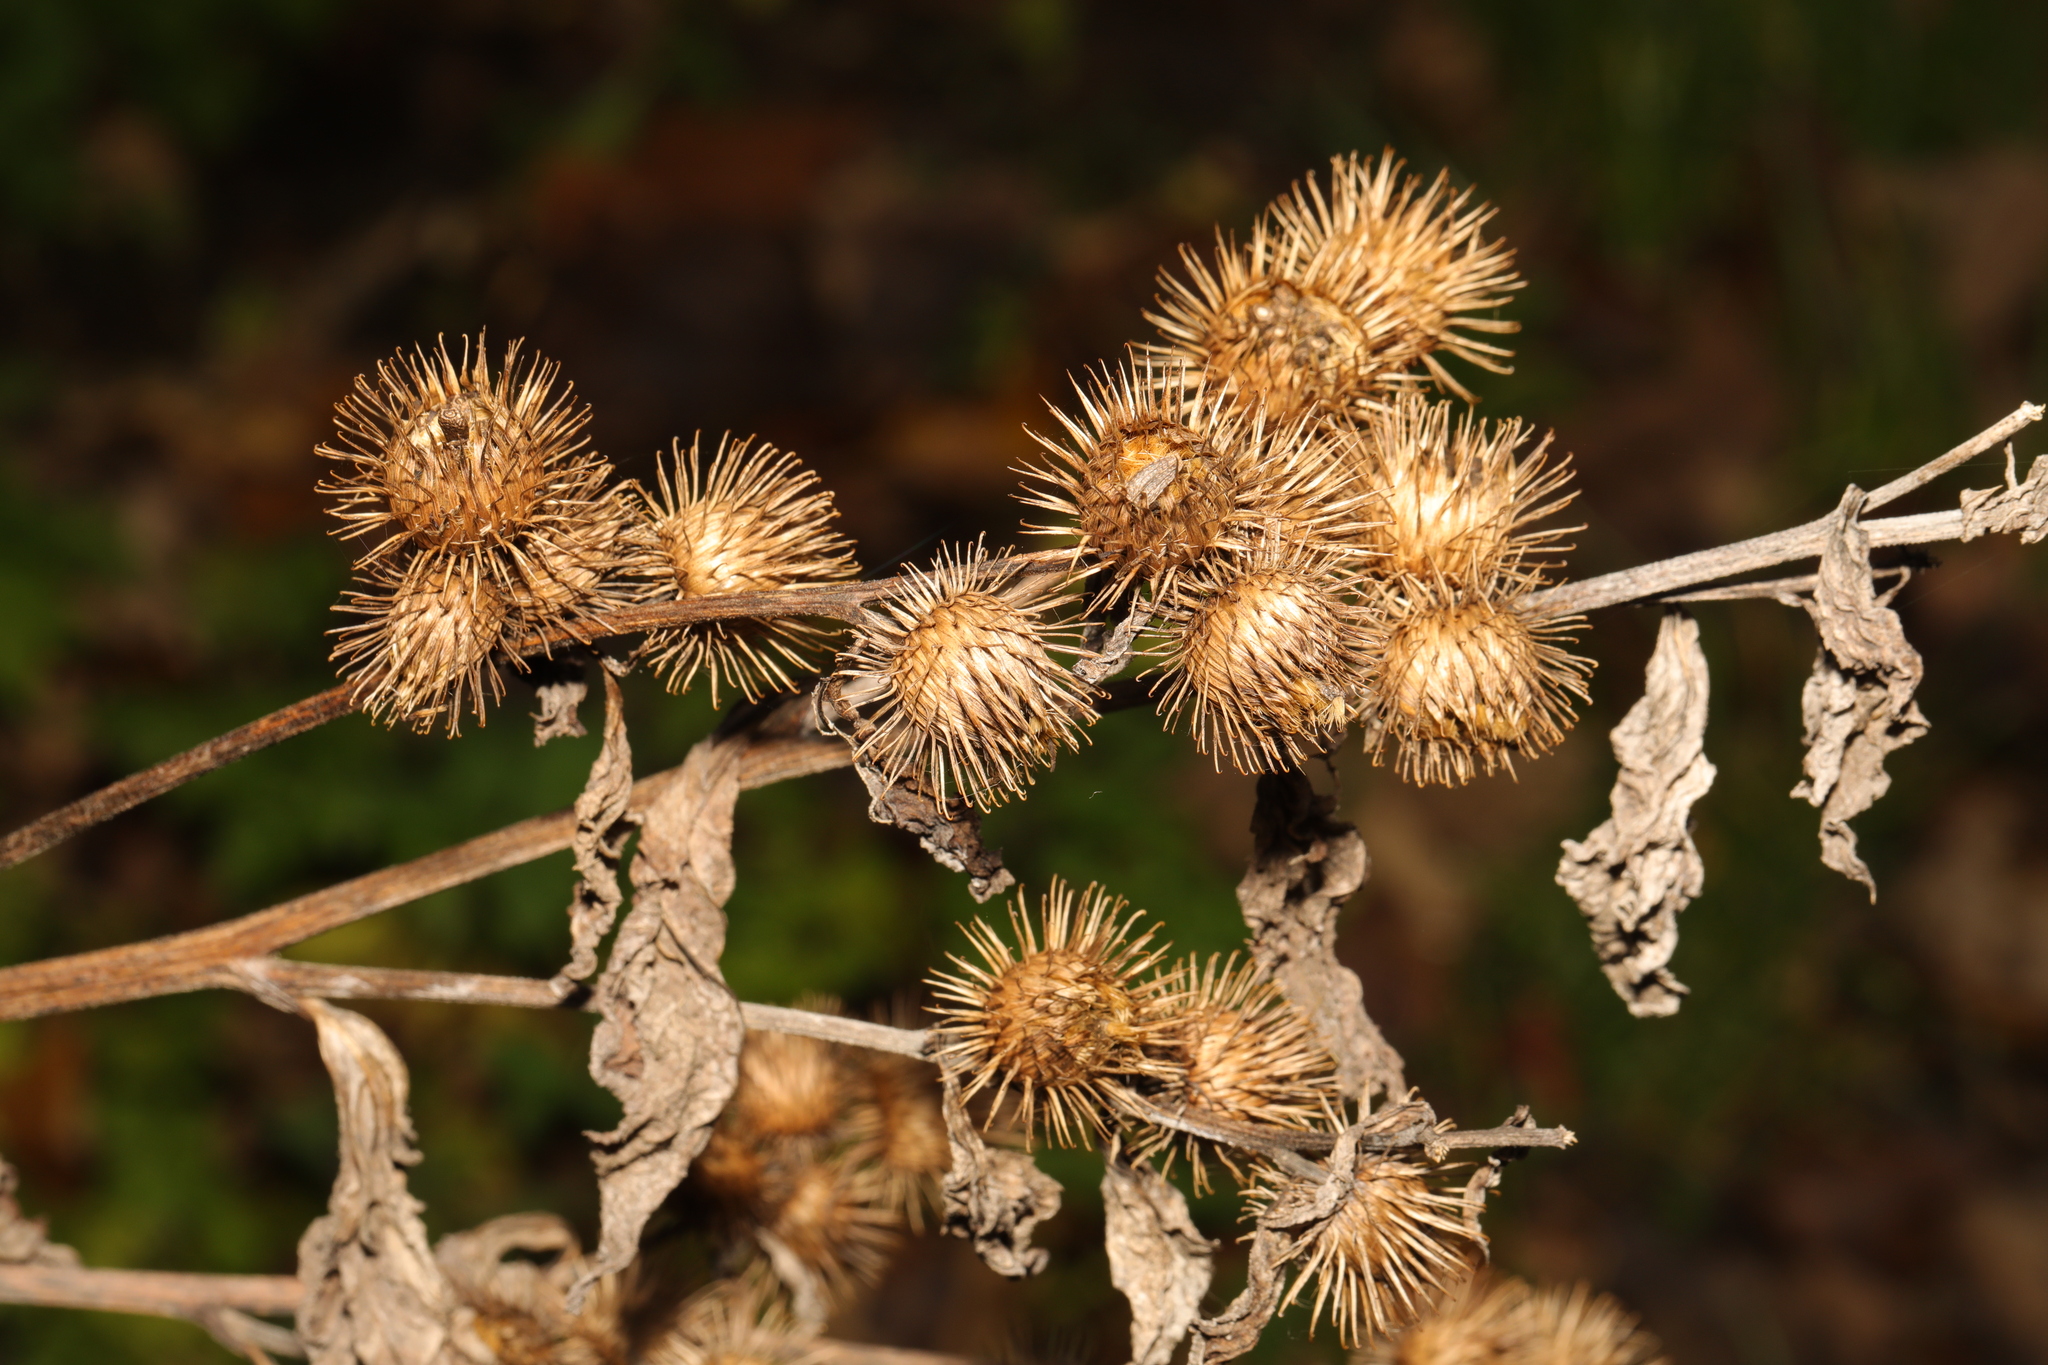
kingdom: Plantae
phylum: Tracheophyta
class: Magnoliopsida
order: Asterales
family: Asteraceae
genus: Arctium
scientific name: Arctium minus
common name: Lesser burdock
